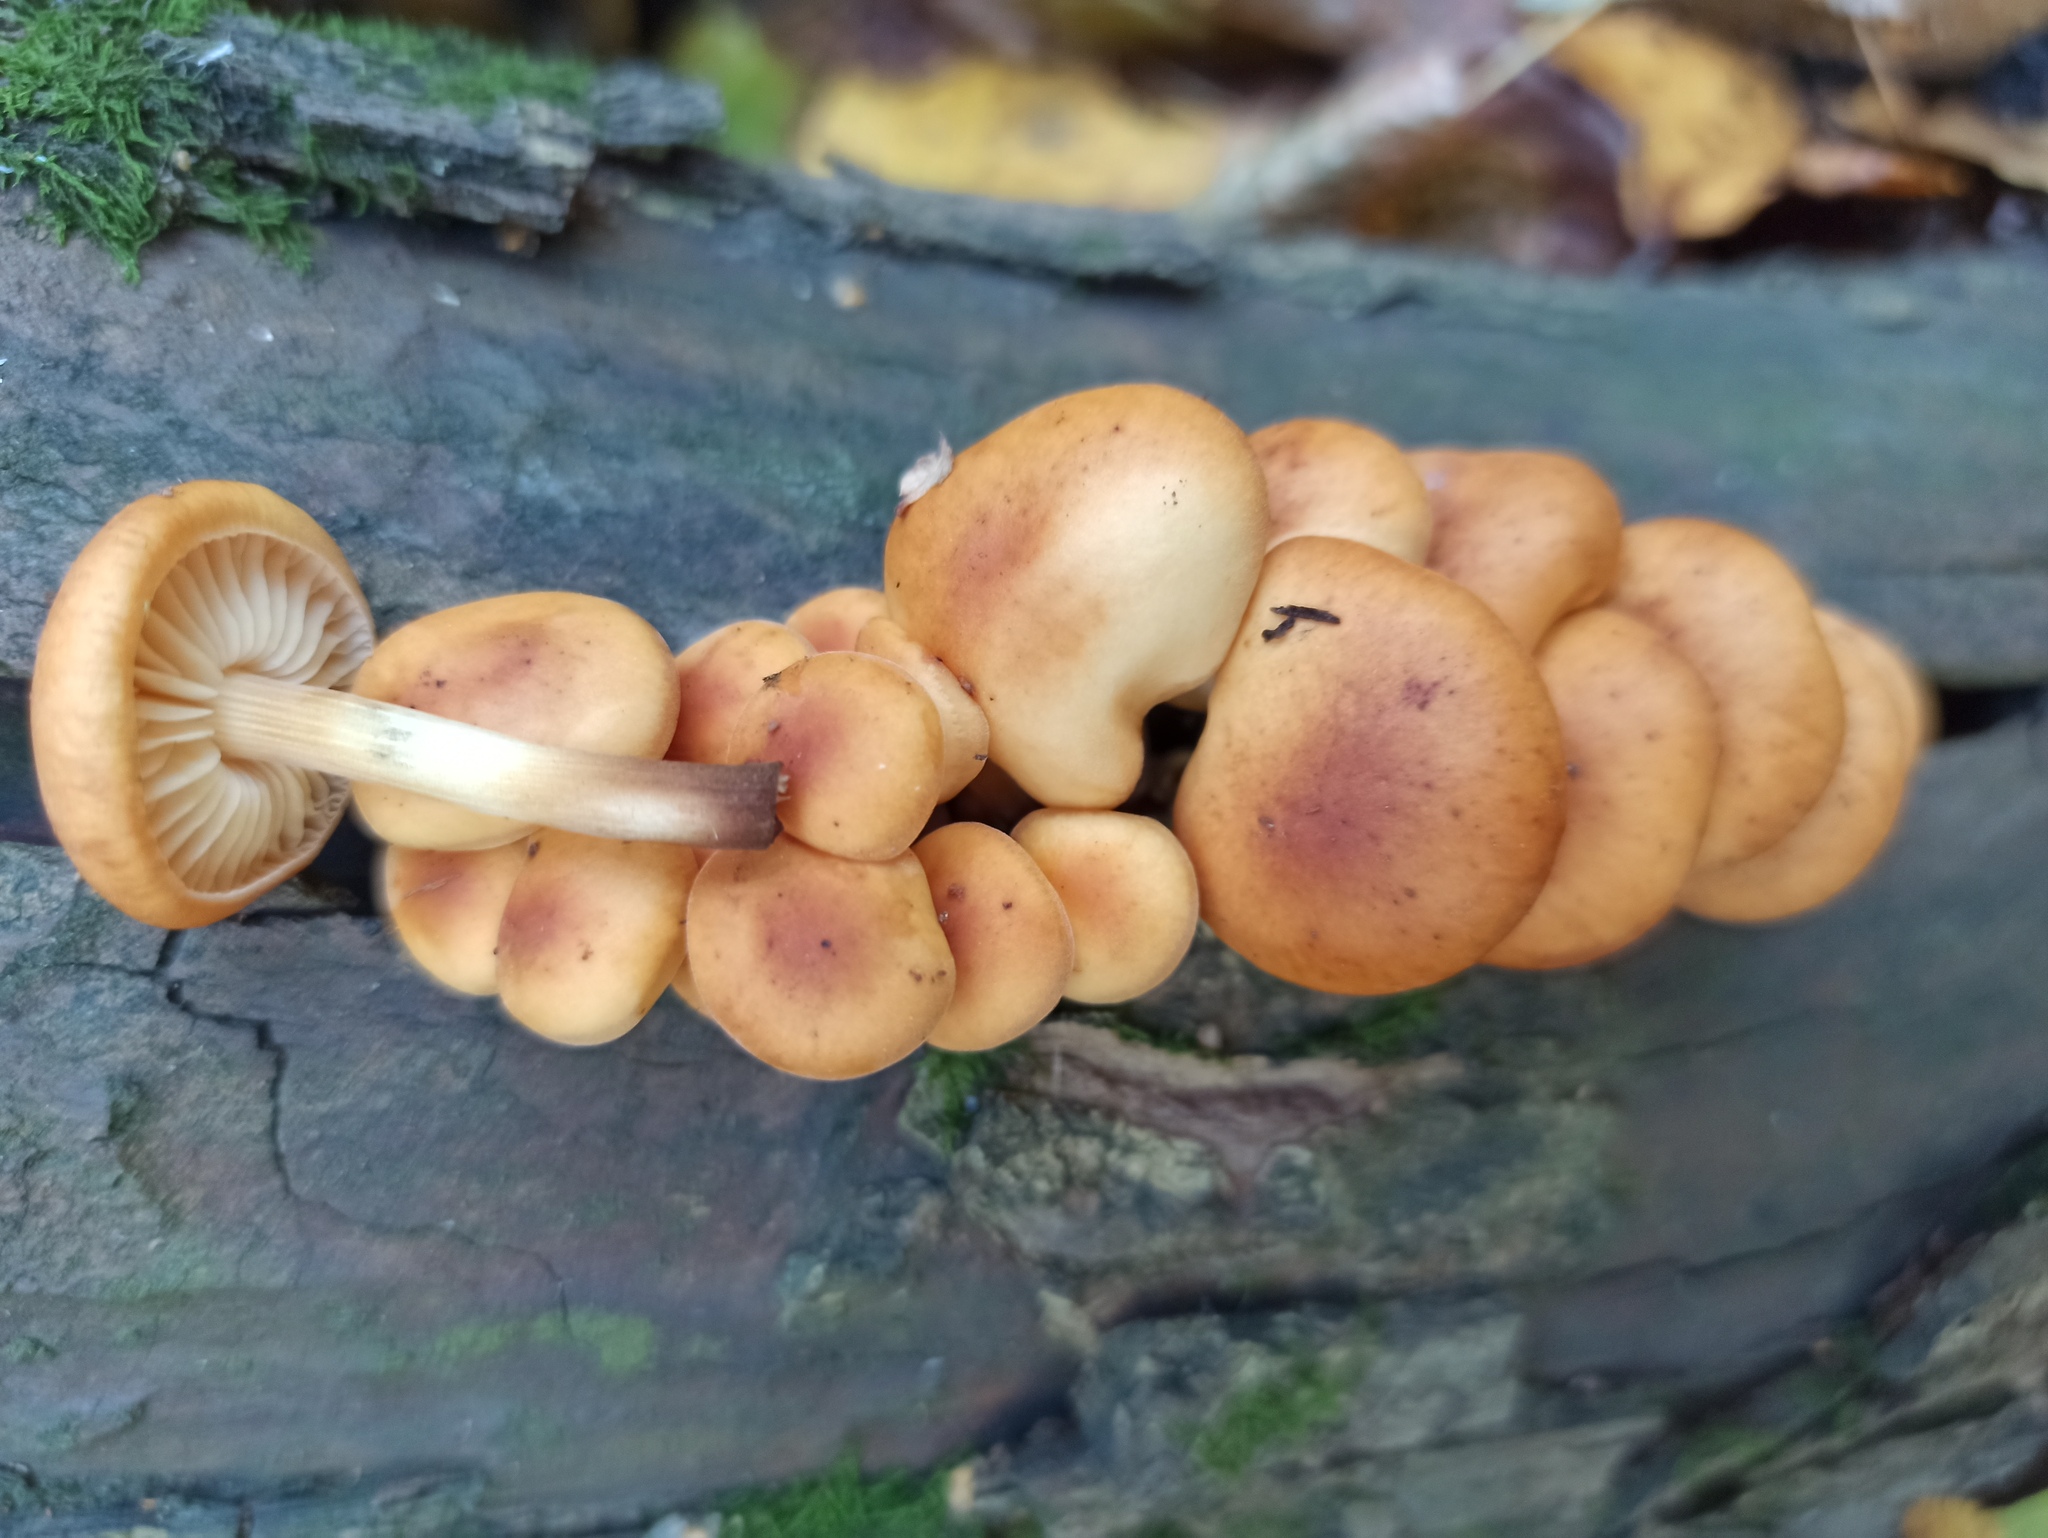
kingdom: Fungi
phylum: Basidiomycota
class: Agaricomycetes
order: Agaricales
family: Physalacriaceae
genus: Flammulina
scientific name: Flammulina
